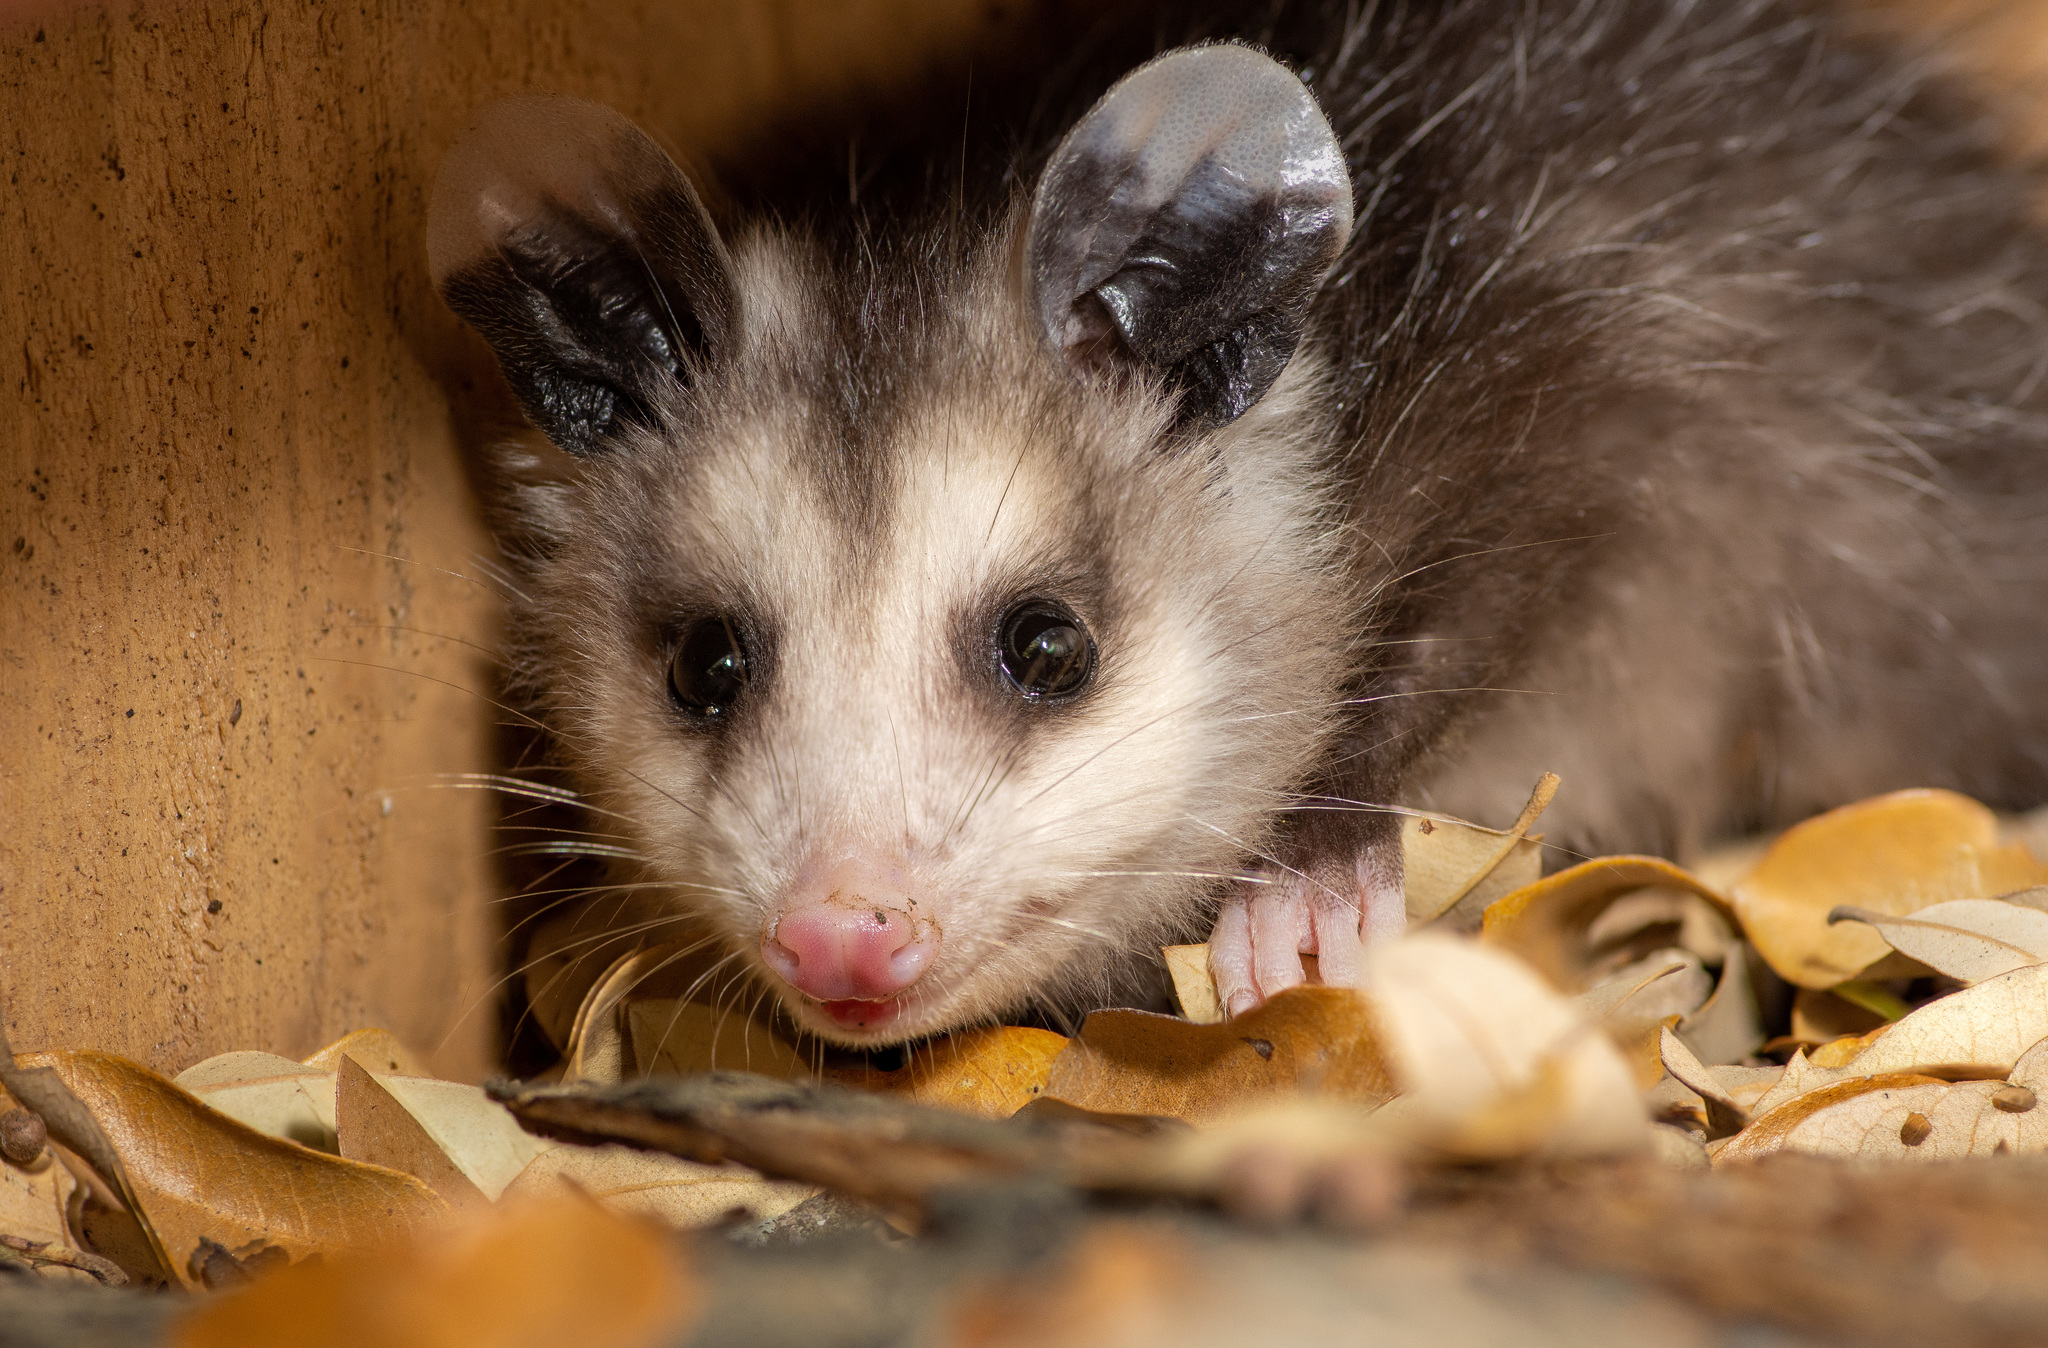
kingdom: Animalia
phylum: Chordata
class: Mammalia
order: Didelphimorphia
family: Didelphidae
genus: Didelphis
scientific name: Didelphis virginiana
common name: Virginia opossum
